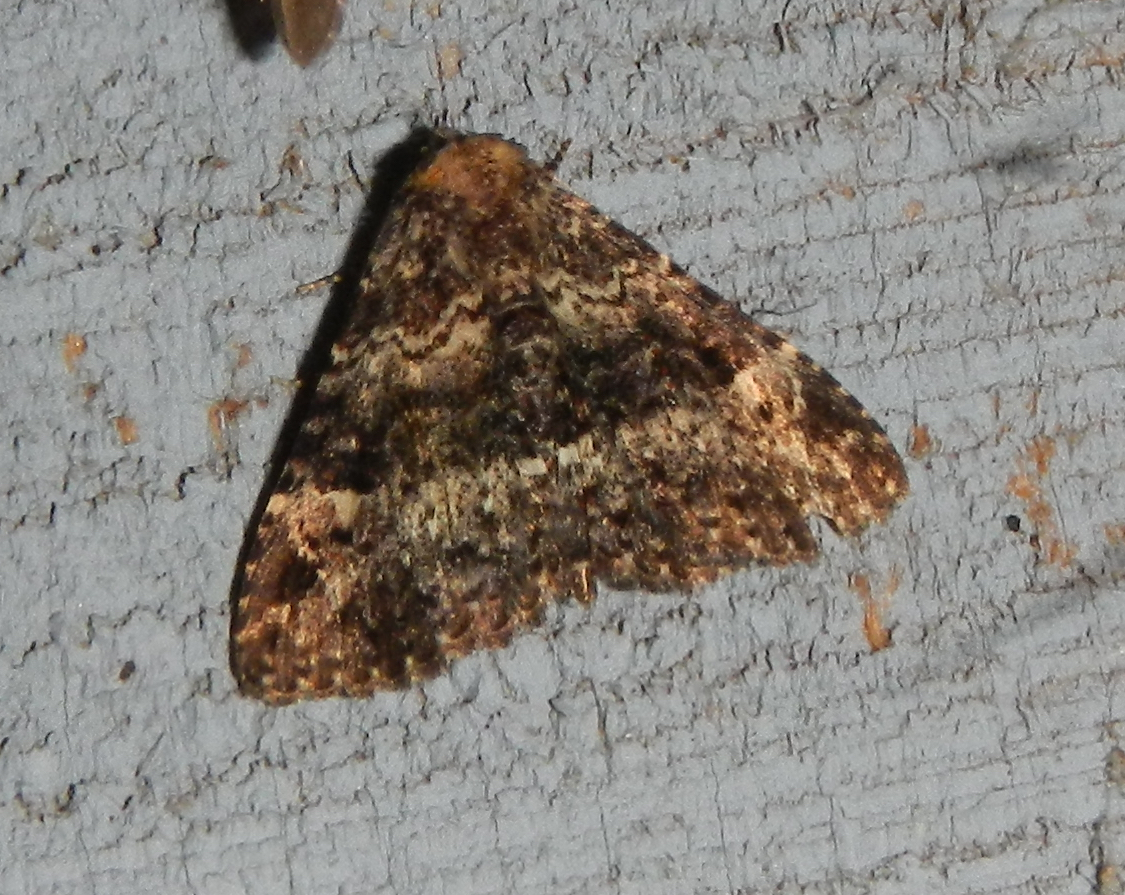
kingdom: Animalia
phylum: Arthropoda
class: Insecta
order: Lepidoptera
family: Erebidae
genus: Metalectra
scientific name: Metalectra discalis
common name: Common fungus moth
